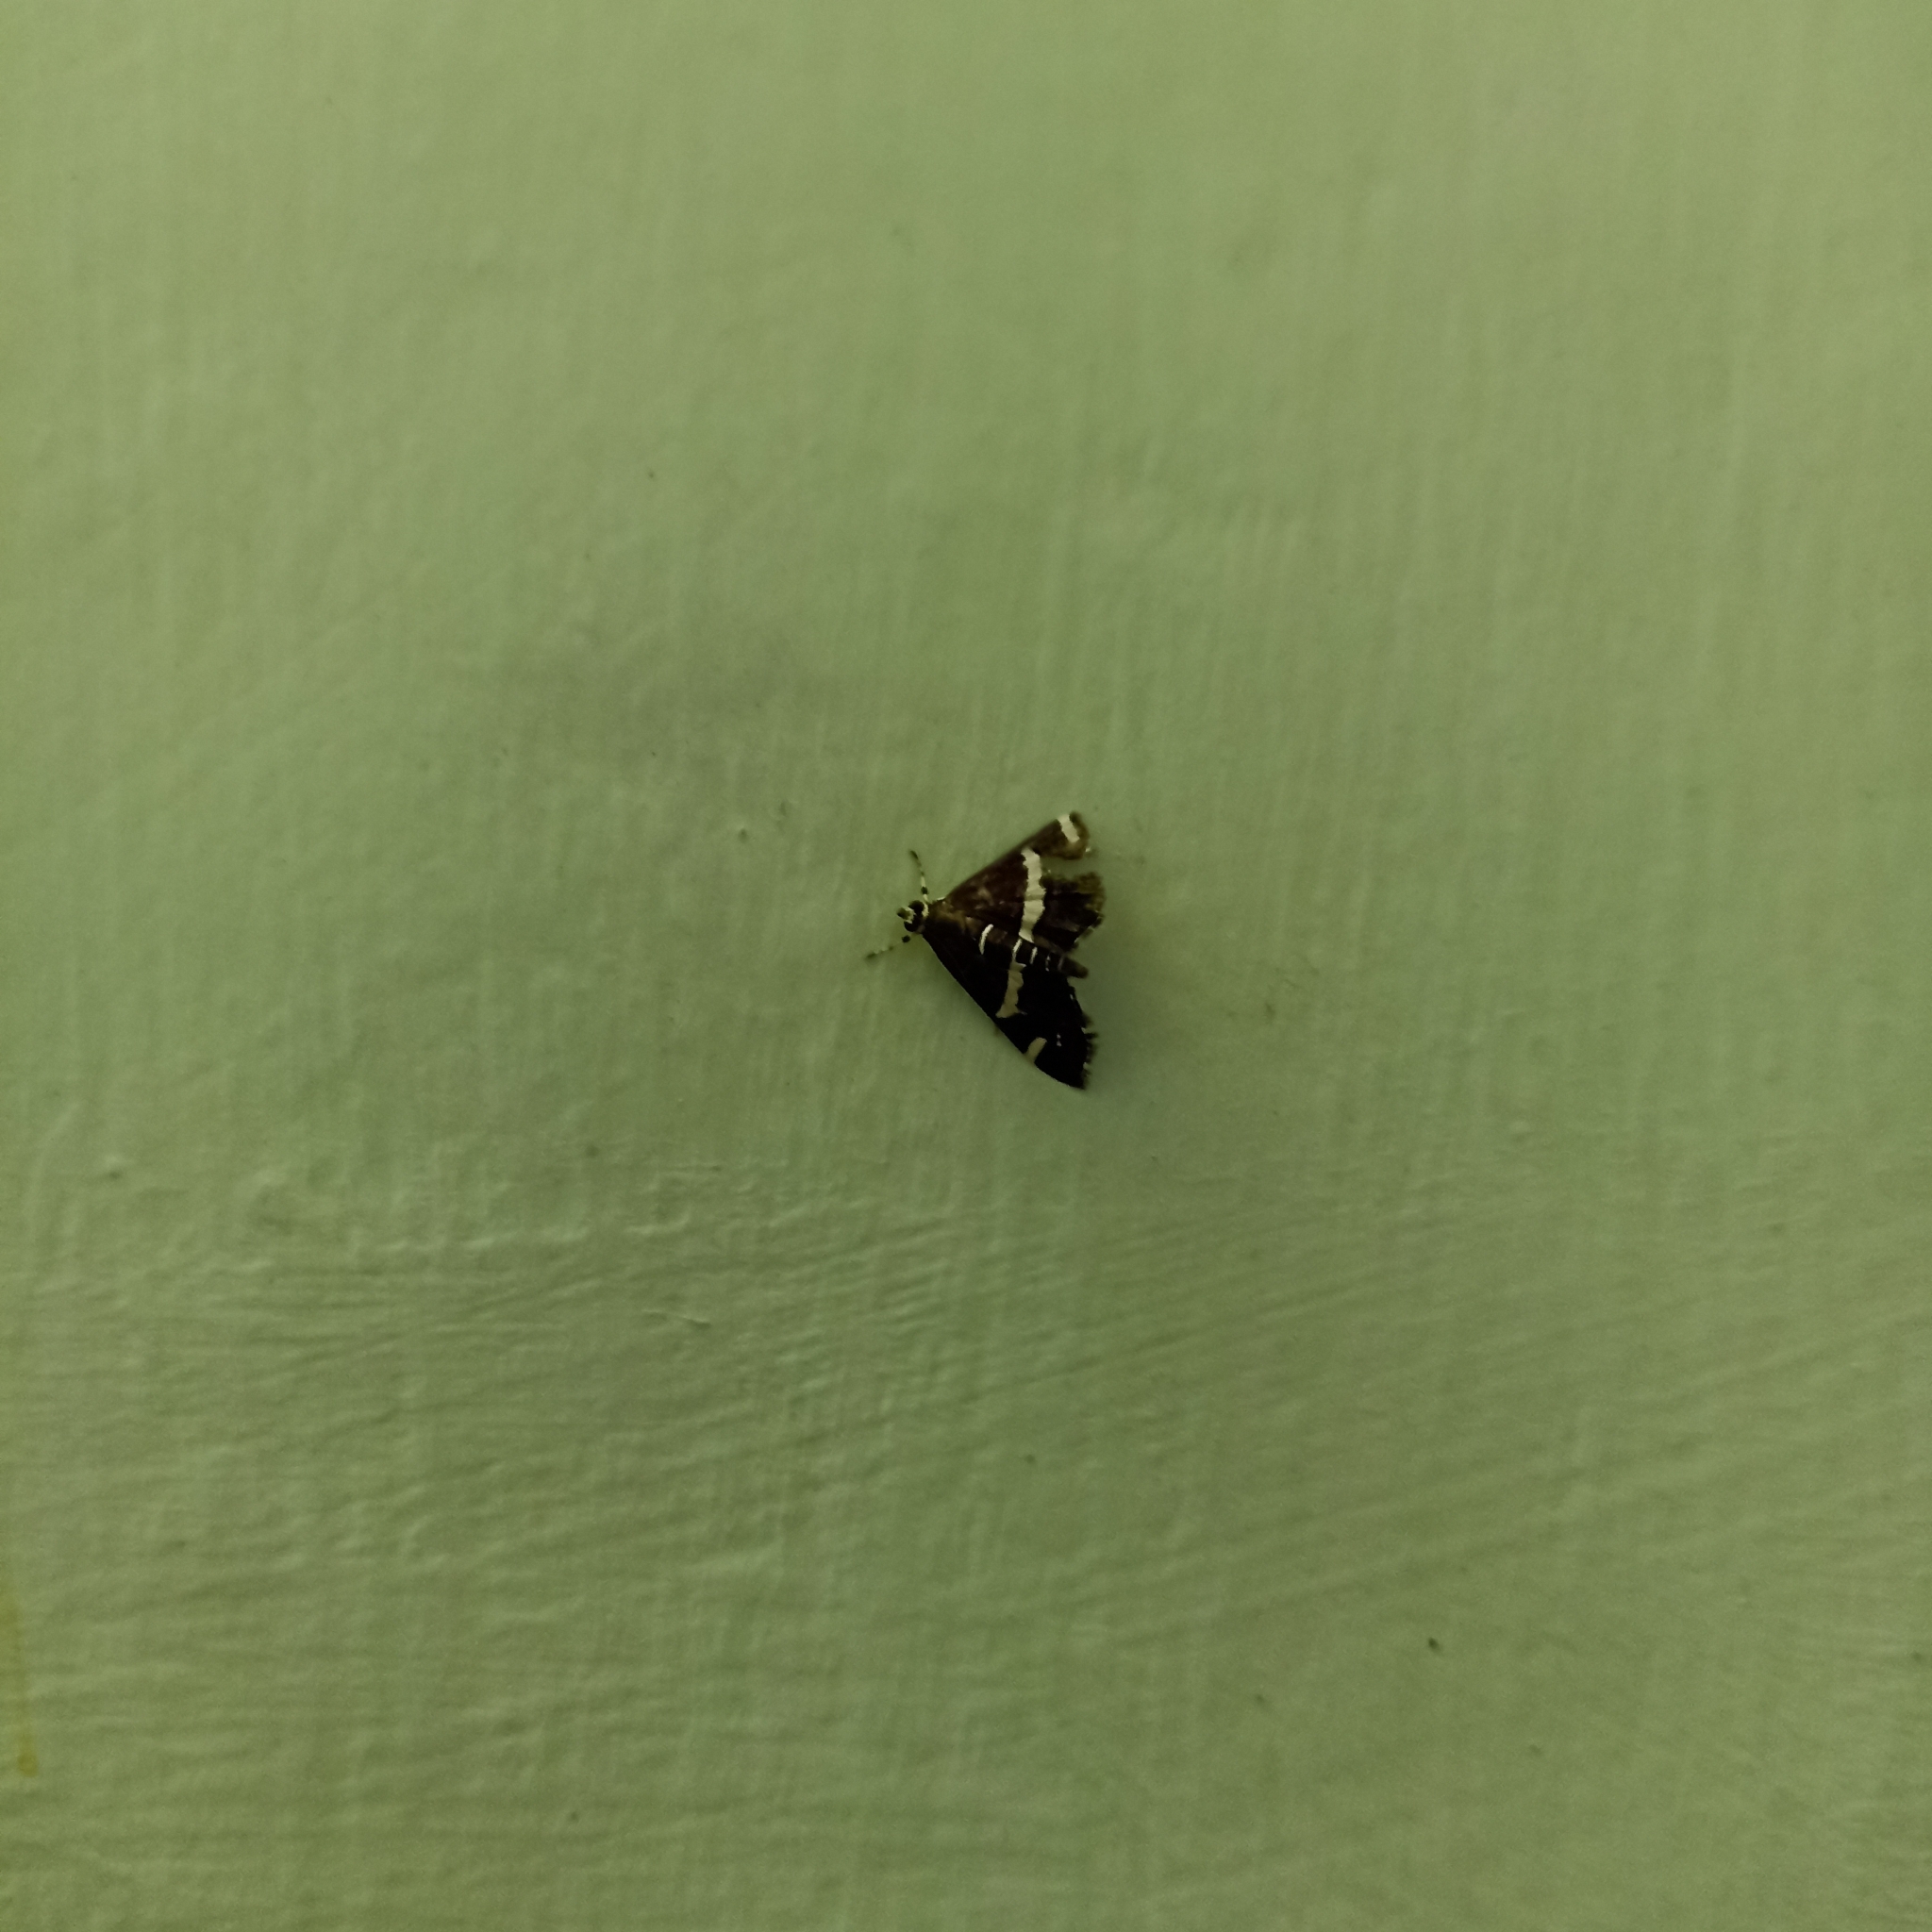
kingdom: Animalia
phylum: Arthropoda
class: Insecta
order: Lepidoptera
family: Crambidae
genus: Spoladea
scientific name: Spoladea recurvalis
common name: Beet webworm moth
